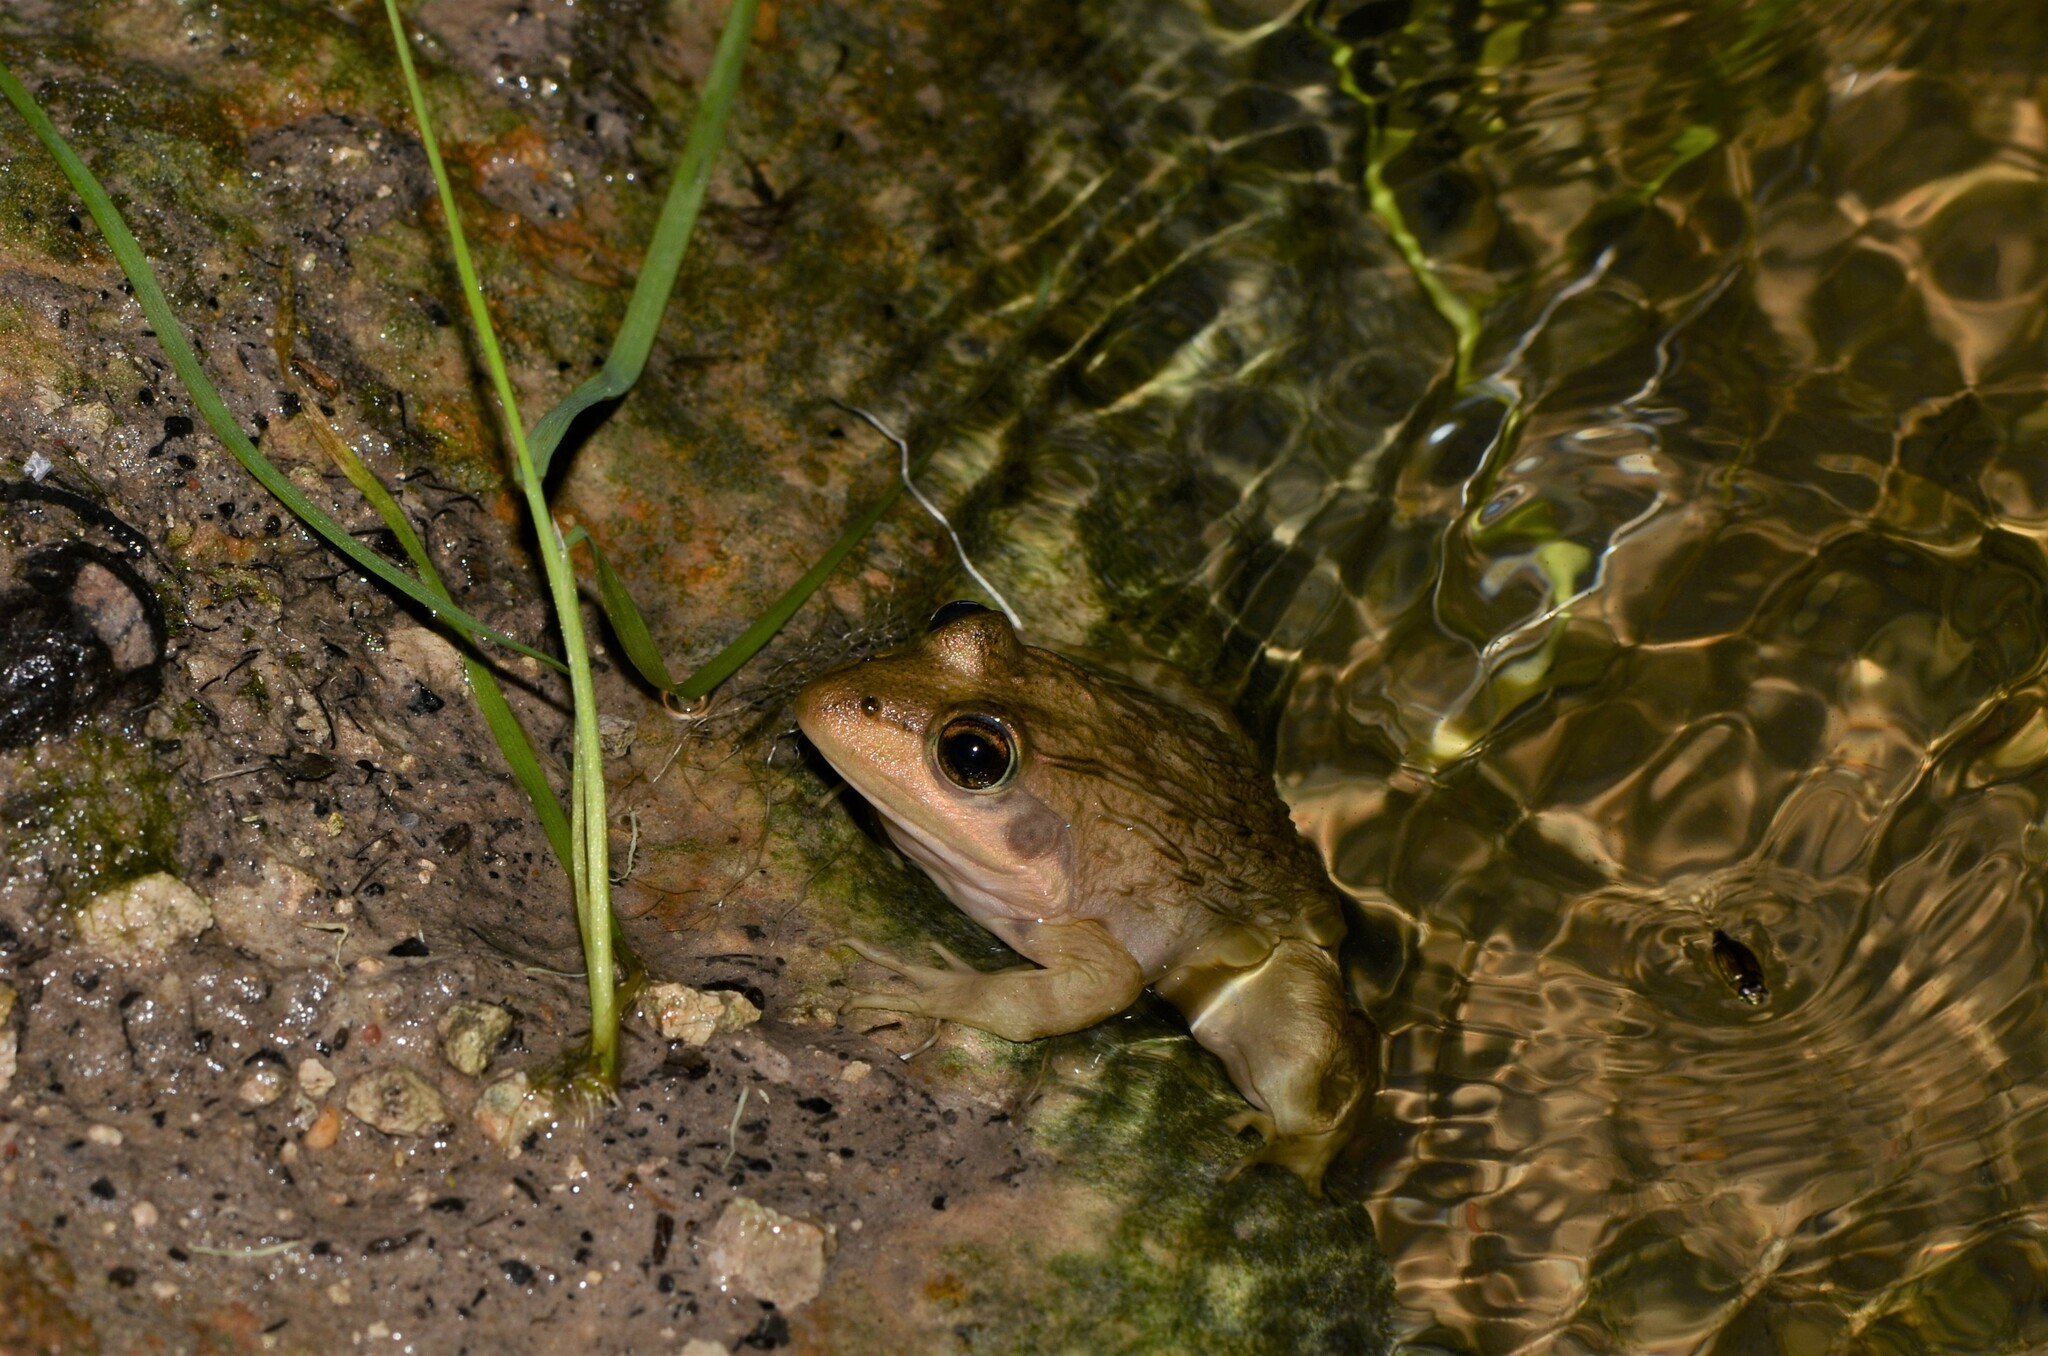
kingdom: Animalia
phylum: Chordata
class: Amphibia
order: Anura
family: Pyxicephalidae
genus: Amietia
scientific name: Amietia fuscigula
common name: Cape rana
